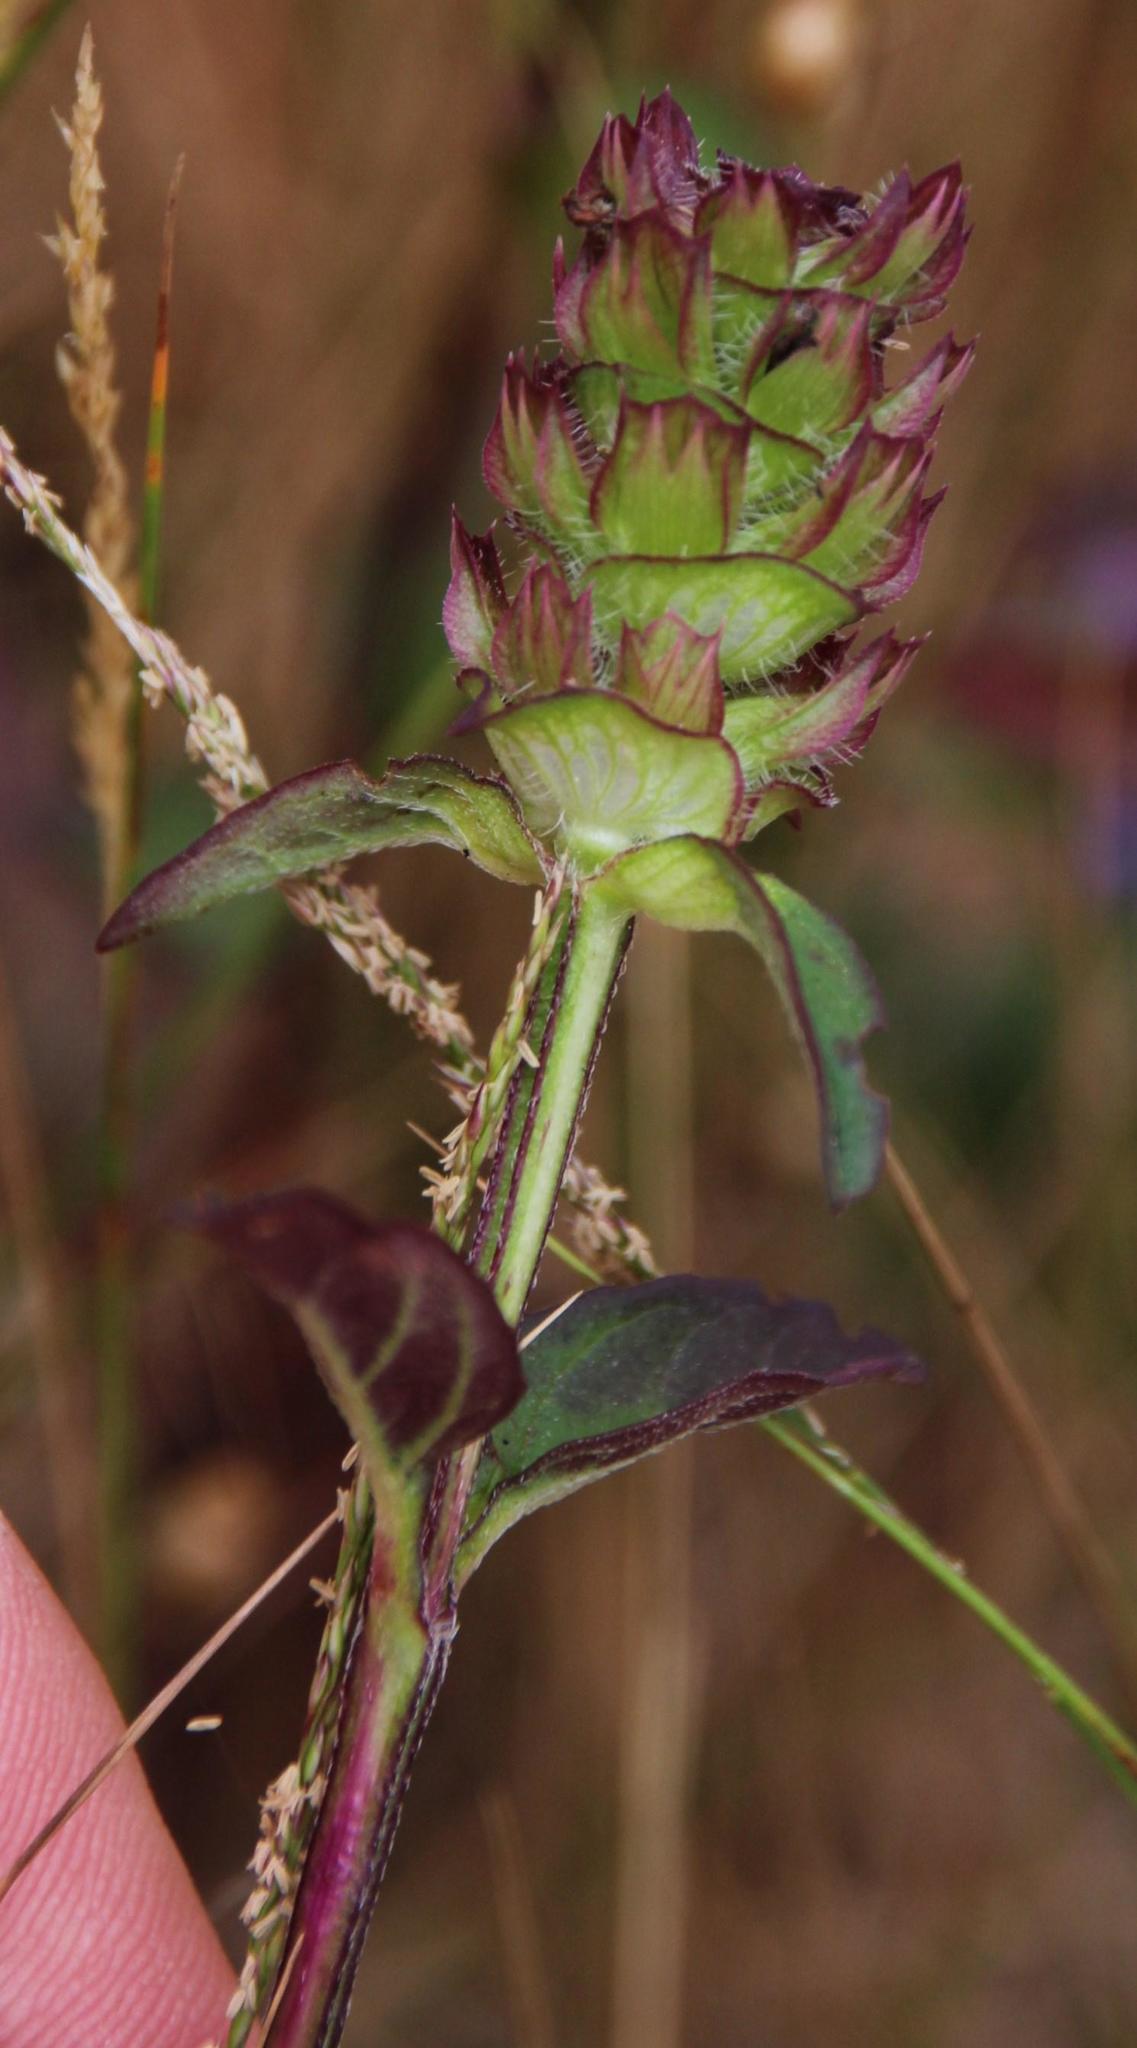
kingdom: Plantae
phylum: Tracheophyta
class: Magnoliopsida
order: Lamiales
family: Lamiaceae
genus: Prunella
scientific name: Prunella vulgaris
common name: Heal-all
